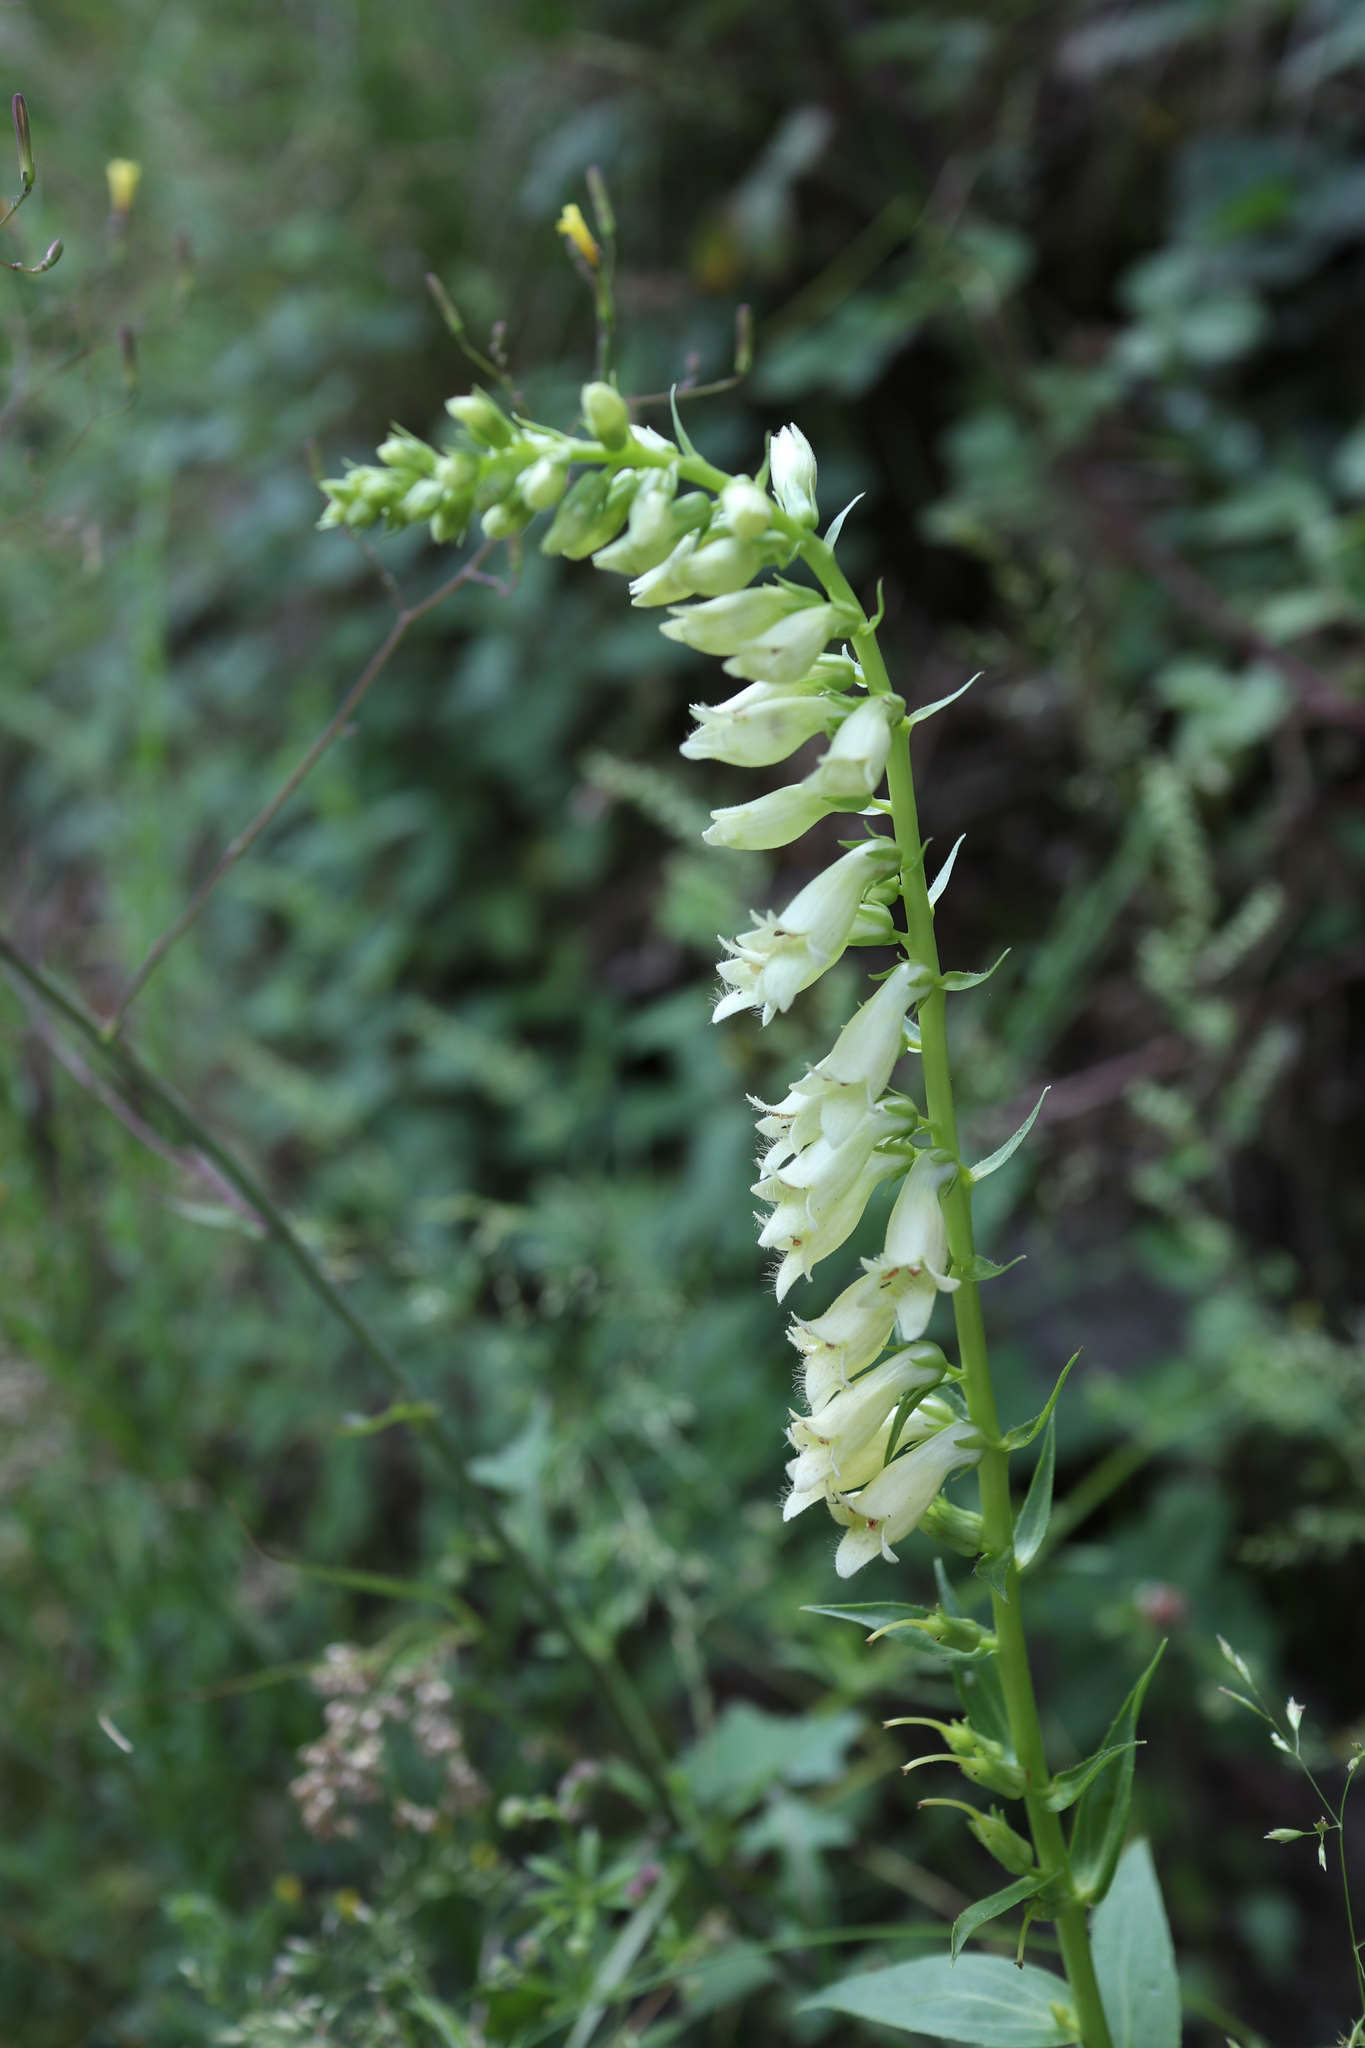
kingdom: Plantae
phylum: Tracheophyta
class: Magnoliopsida
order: Lamiales
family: Plantaginaceae
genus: Digitalis
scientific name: Digitalis lutea
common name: Straw foxglove
